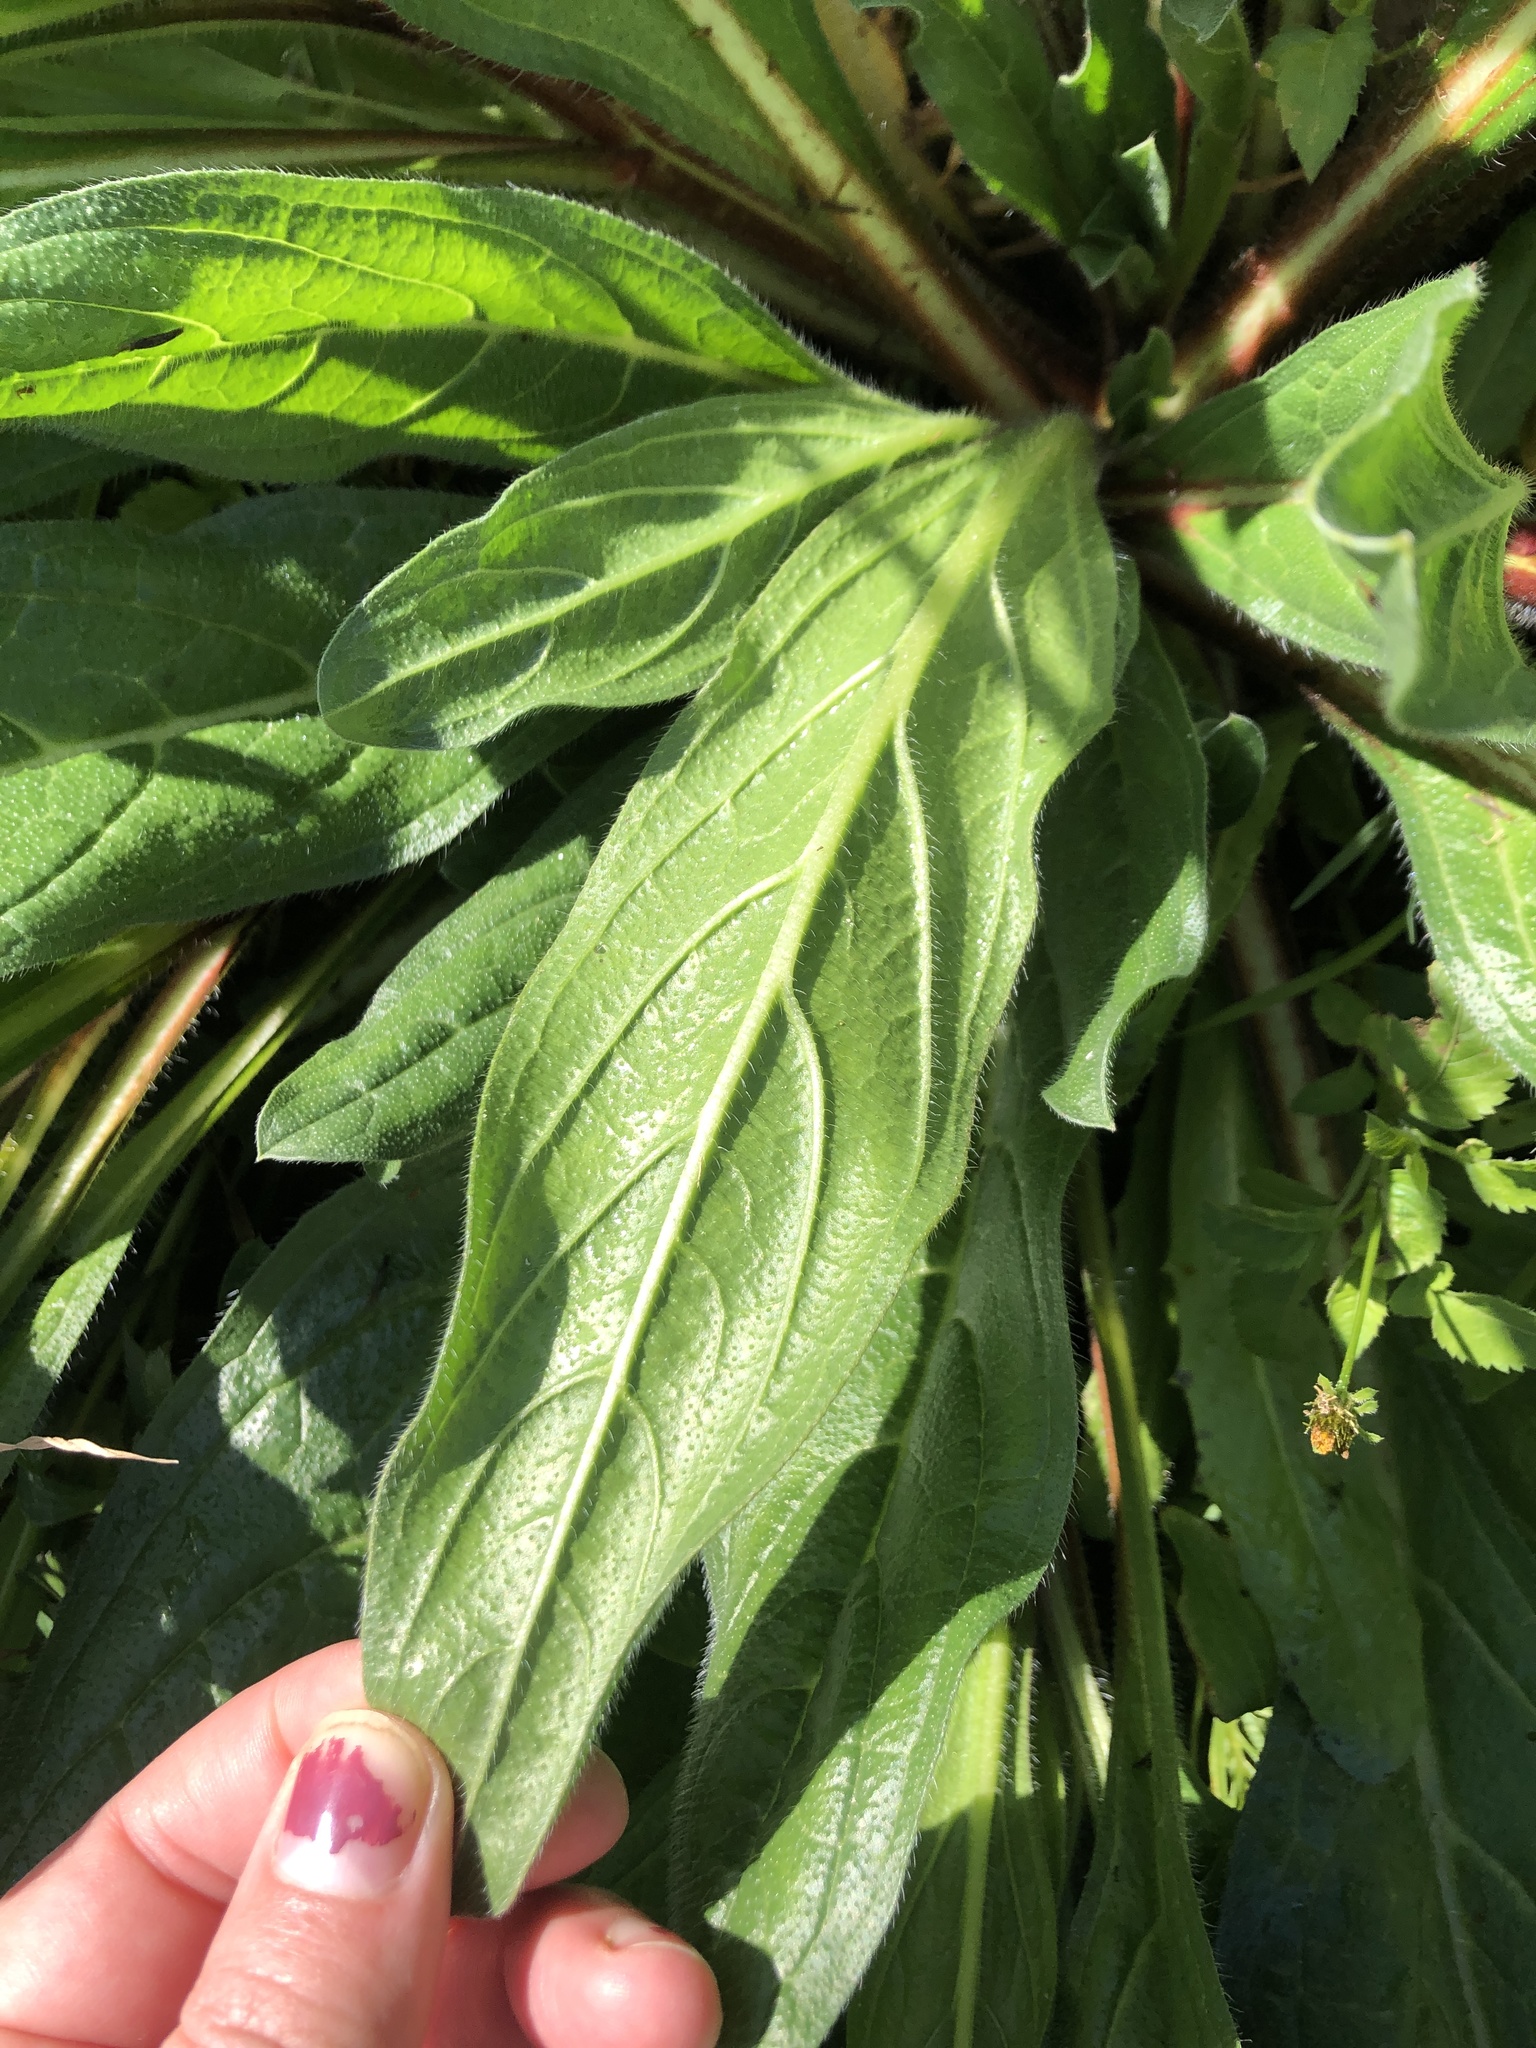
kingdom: Plantae
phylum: Tracheophyta
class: Magnoliopsida
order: Boraginales
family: Boraginaceae
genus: Echium
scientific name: Echium plantagineum
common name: Purple viper's-bugloss
